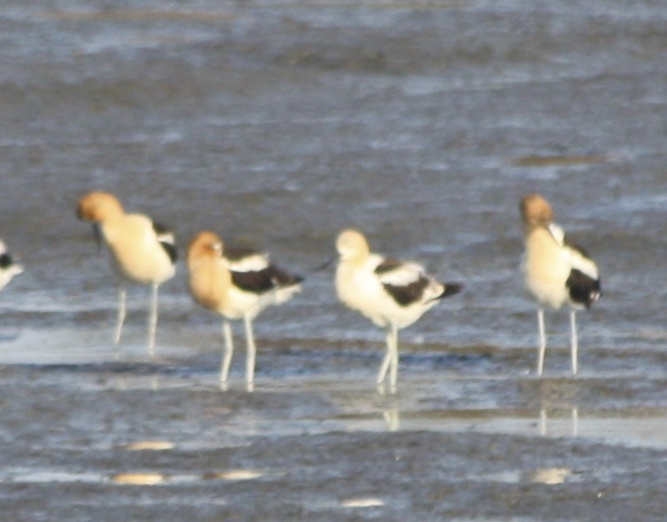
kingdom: Animalia
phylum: Chordata
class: Aves
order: Charadriiformes
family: Recurvirostridae
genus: Recurvirostra
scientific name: Recurvirostra americana
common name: American avocet
